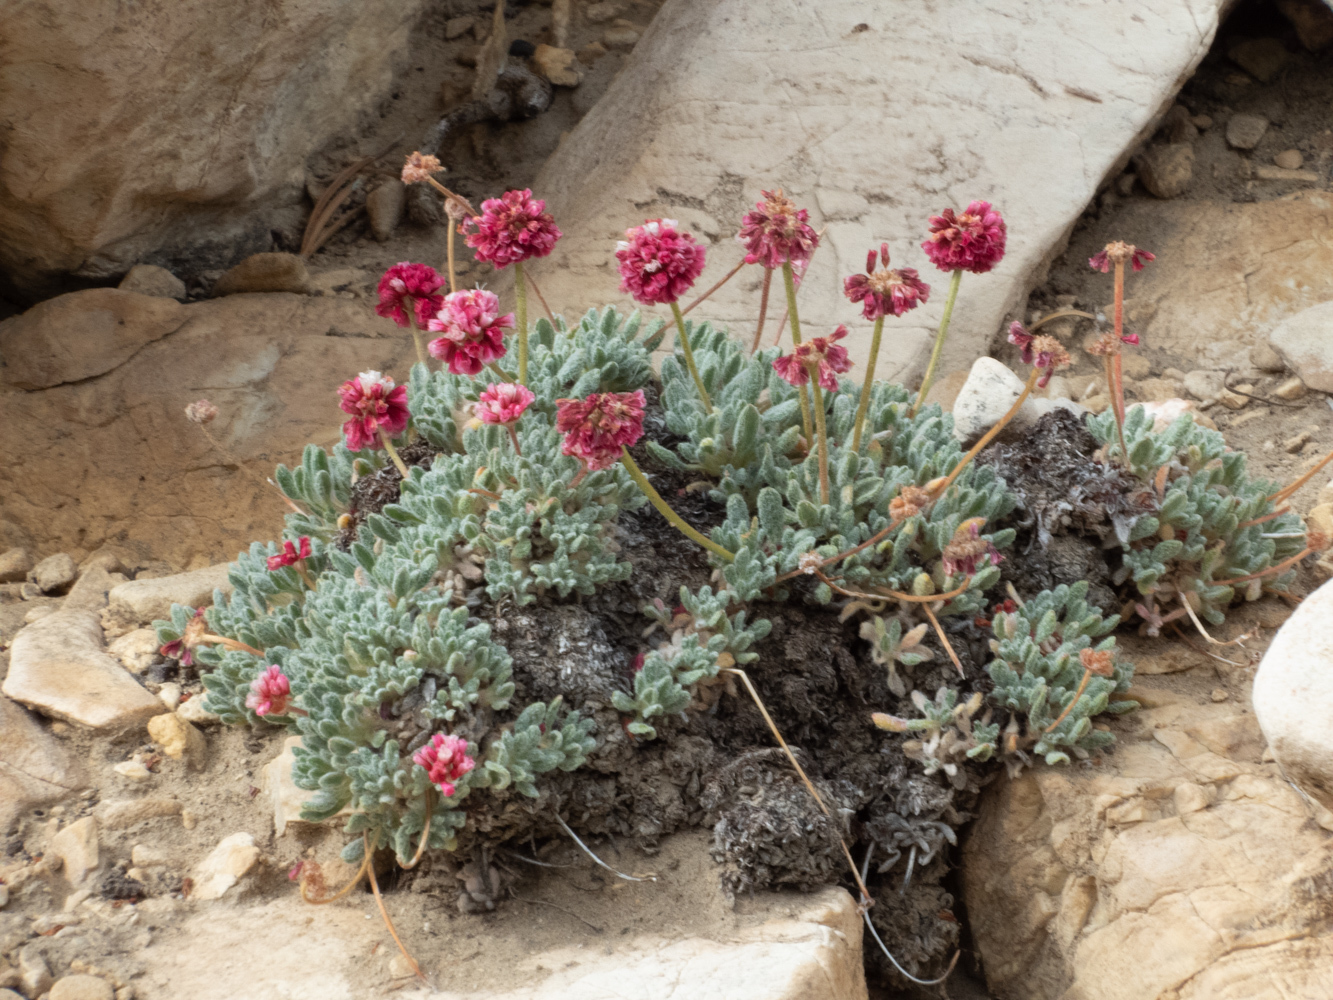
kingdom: Plantae
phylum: Tracheophyta
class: Magnoliopsida
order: Caryophyllales
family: Polygonaceae
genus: Eriogonum
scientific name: Eriogonum gracilipes
